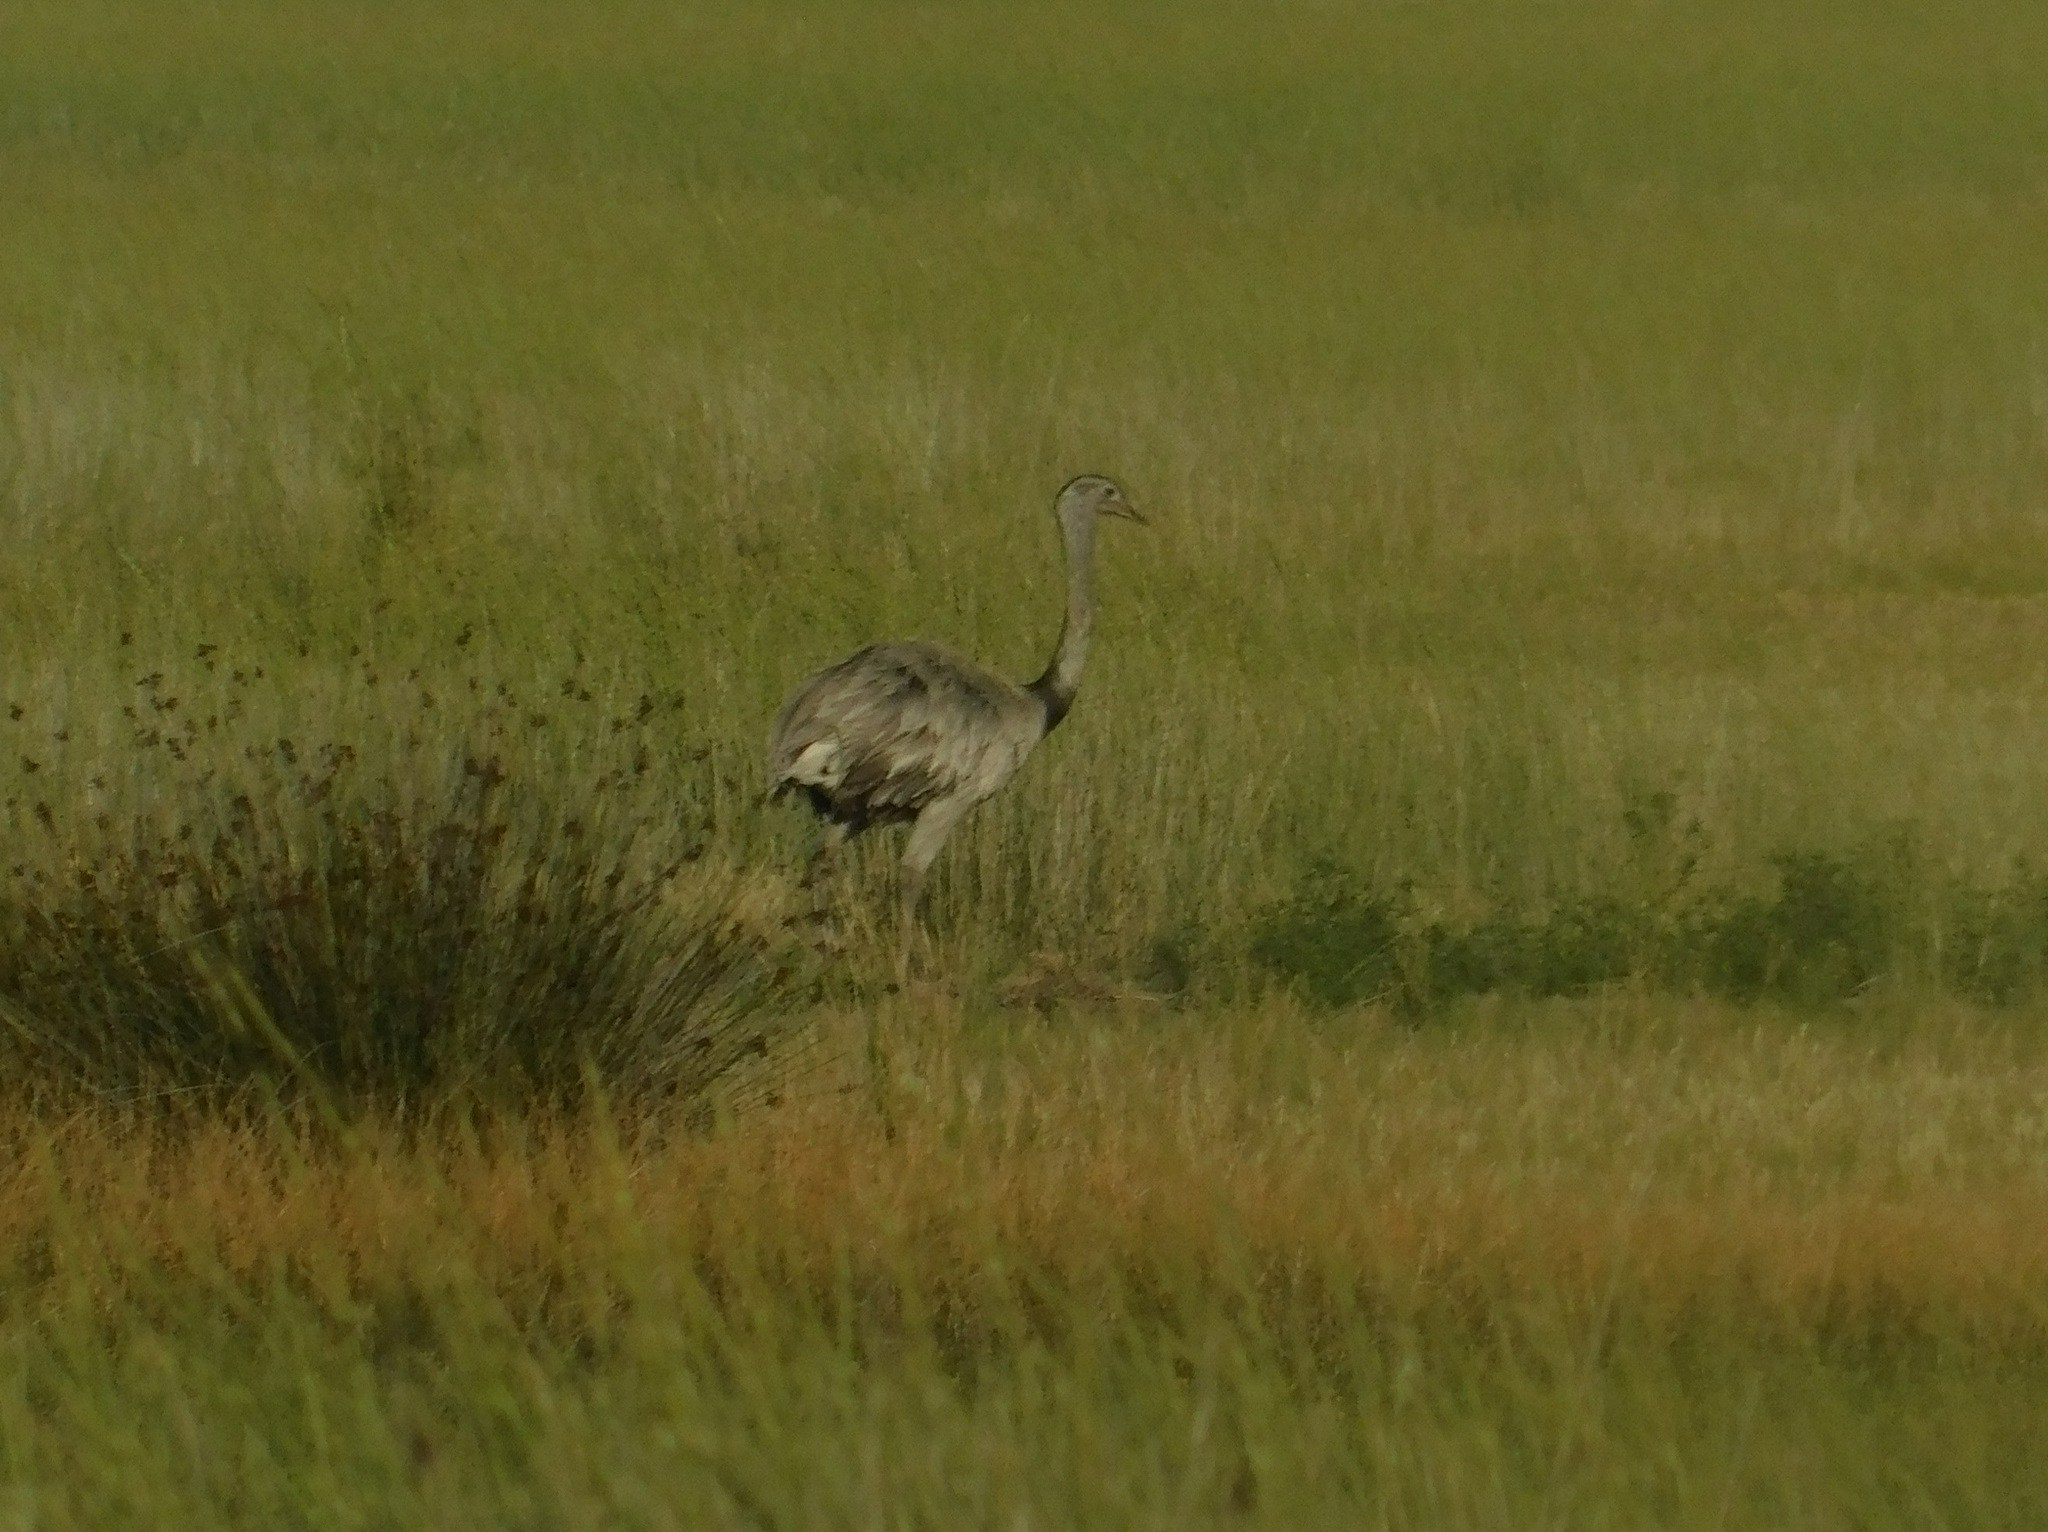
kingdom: Animalia
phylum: Chordata
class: Aves
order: Rheiformes
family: Rheidae
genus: Rhea
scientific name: Rhea americana
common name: Greater rhea
